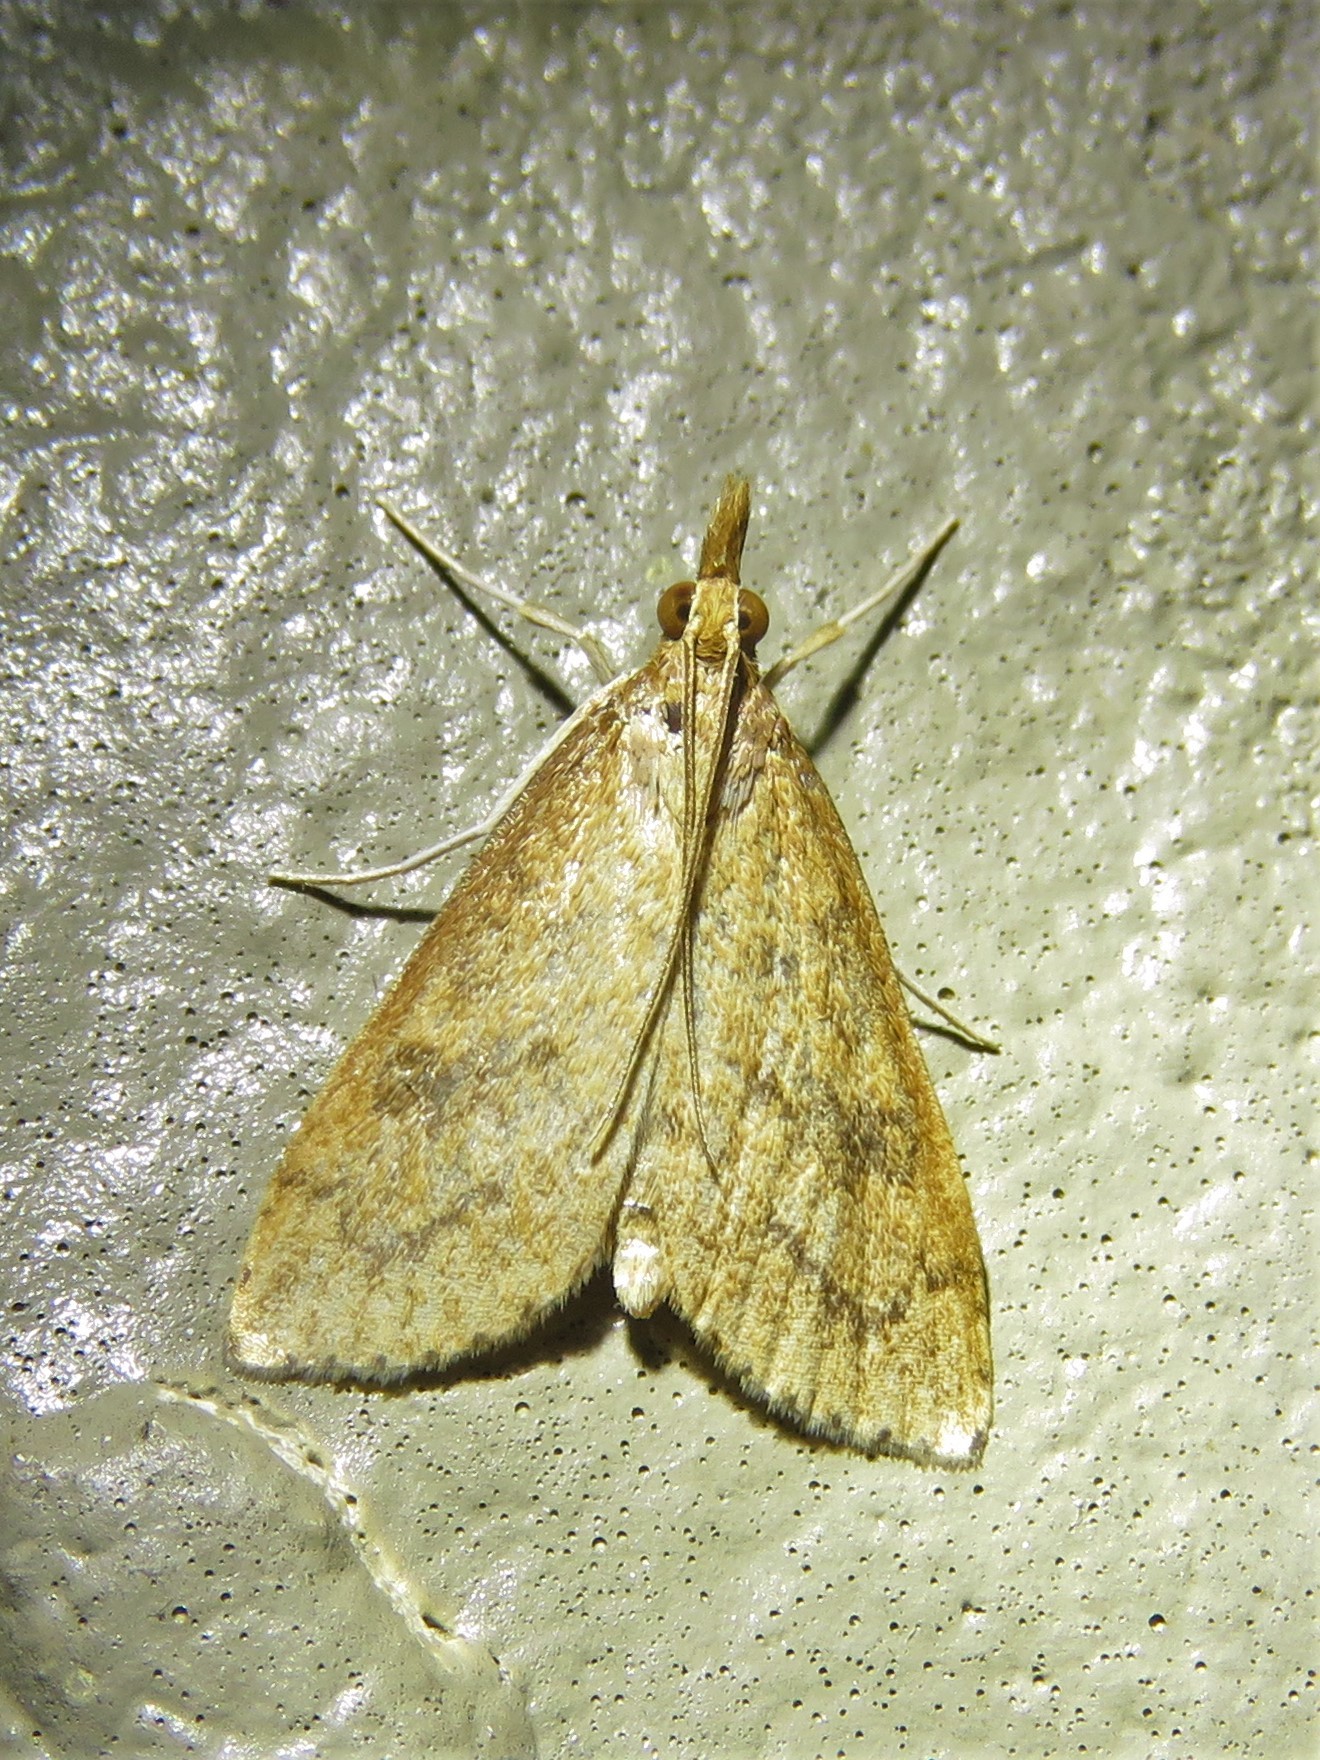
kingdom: Animalia
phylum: Arthropoda
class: Insecta
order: Lepidoptera
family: Crambidae
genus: Udea
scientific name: Udea rubigalis
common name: Celery leaftier moth
